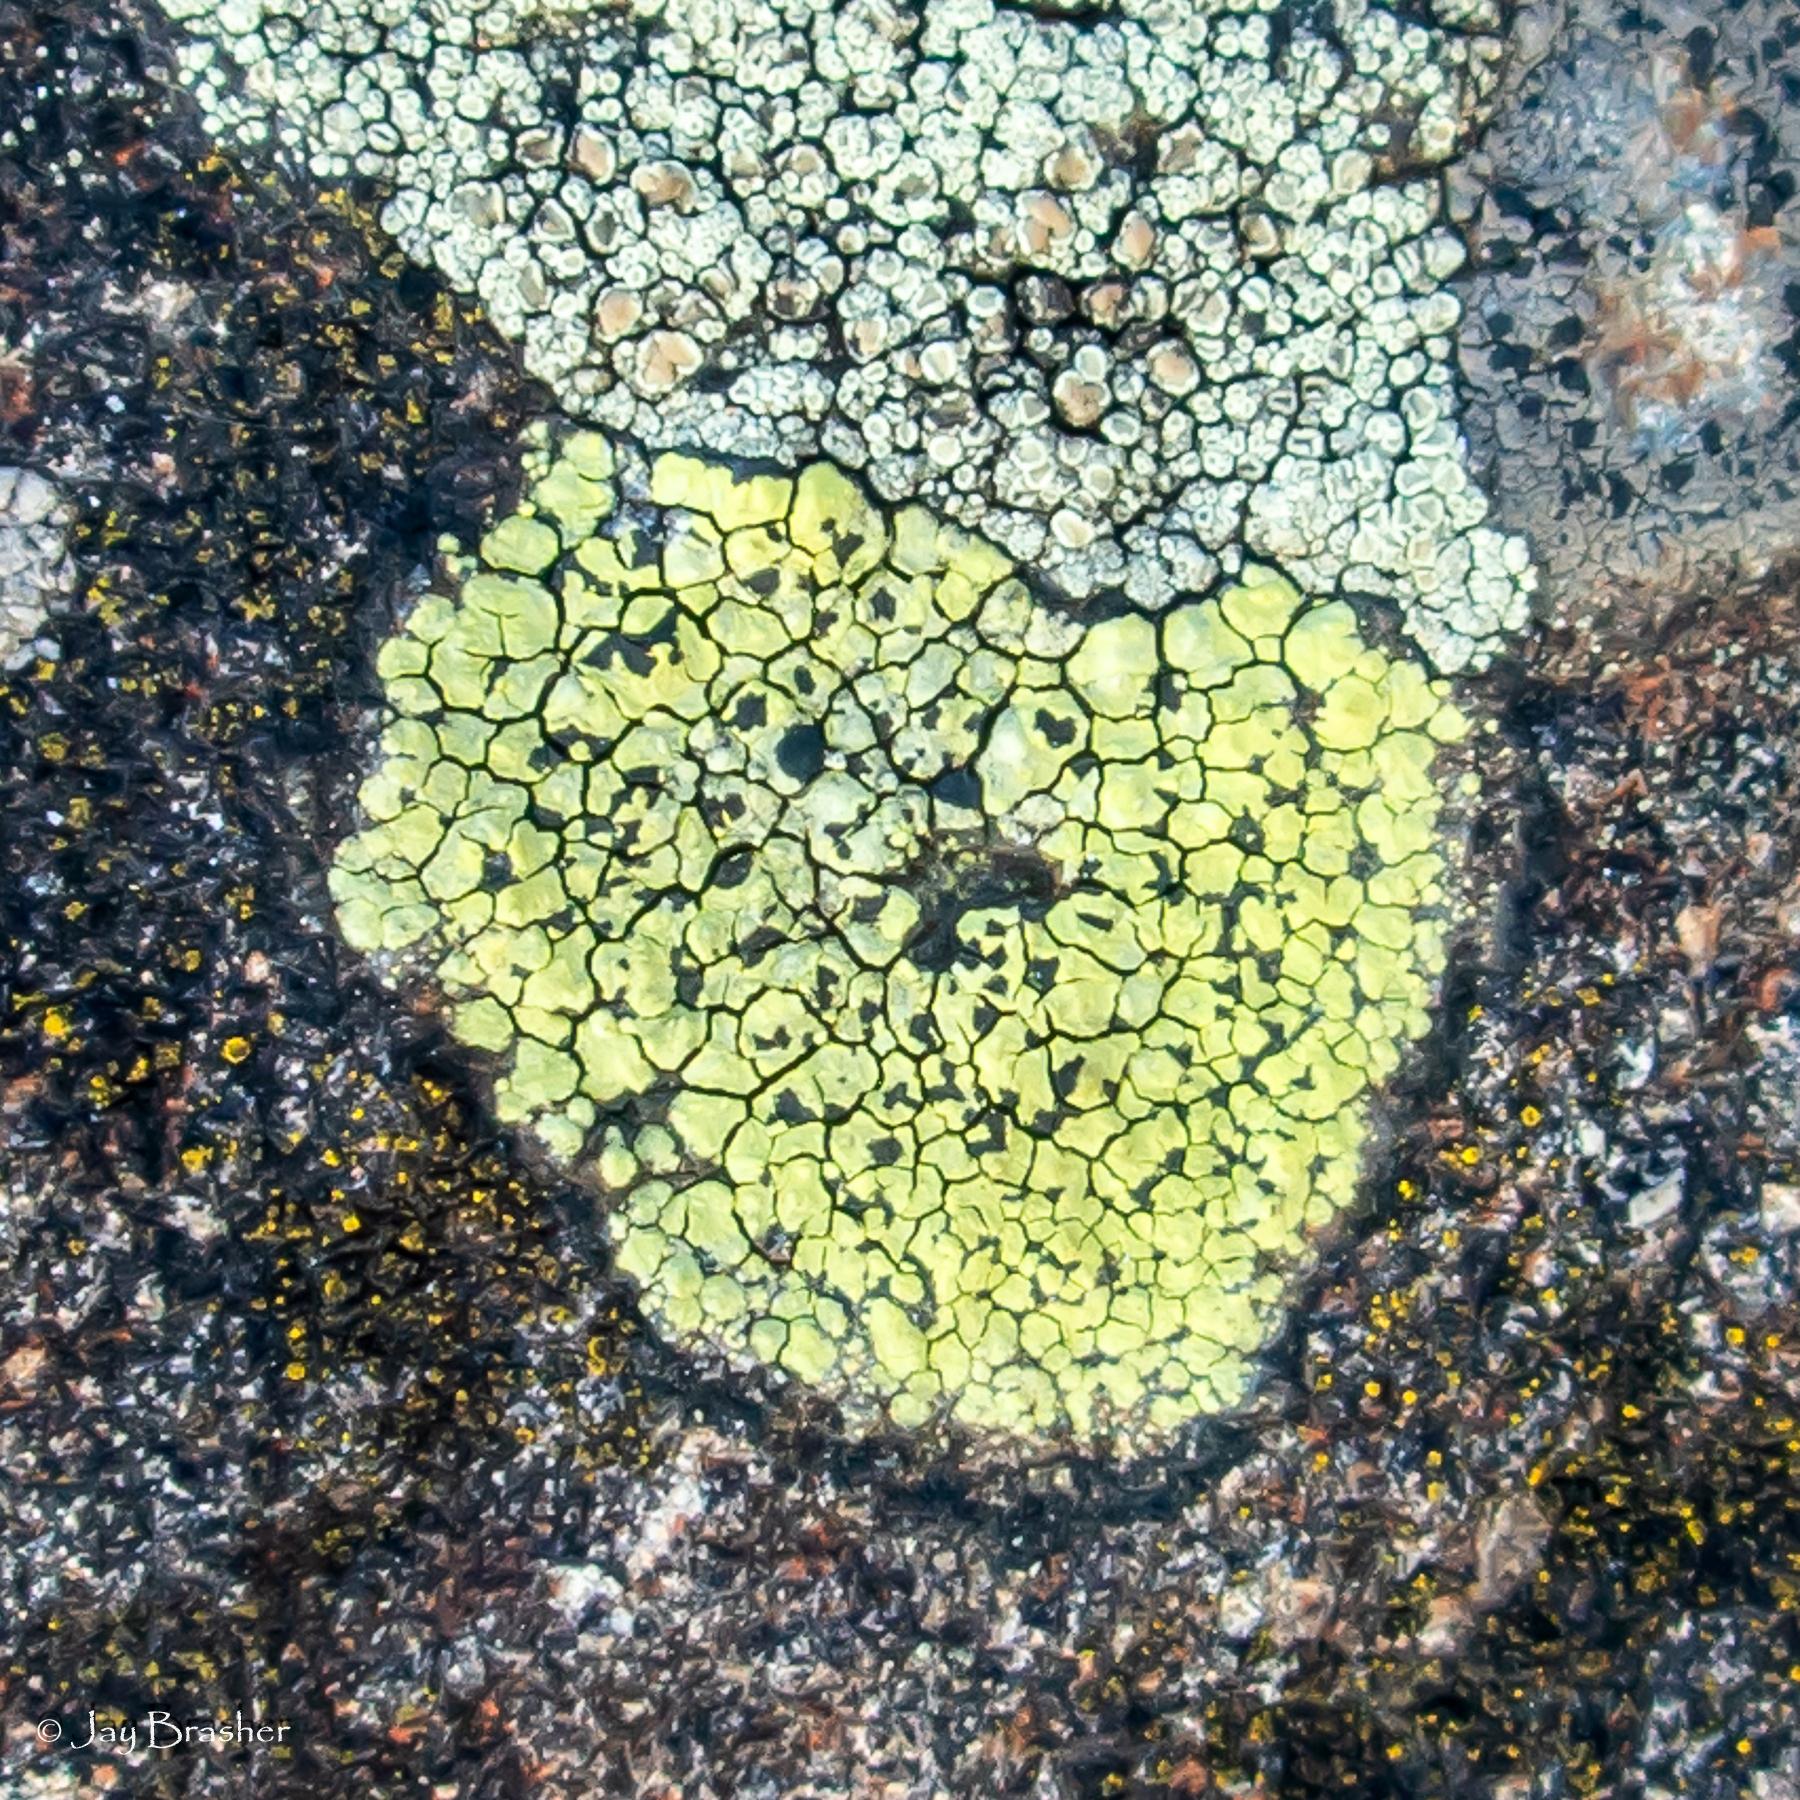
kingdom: Fungi
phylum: Ascomycota
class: Lecanoromycetes
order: Rhizocarpales
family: Rhizocarpaceae
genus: Rhizocarpon
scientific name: Rhizocarpon geographicum
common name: Yellow map lichen
